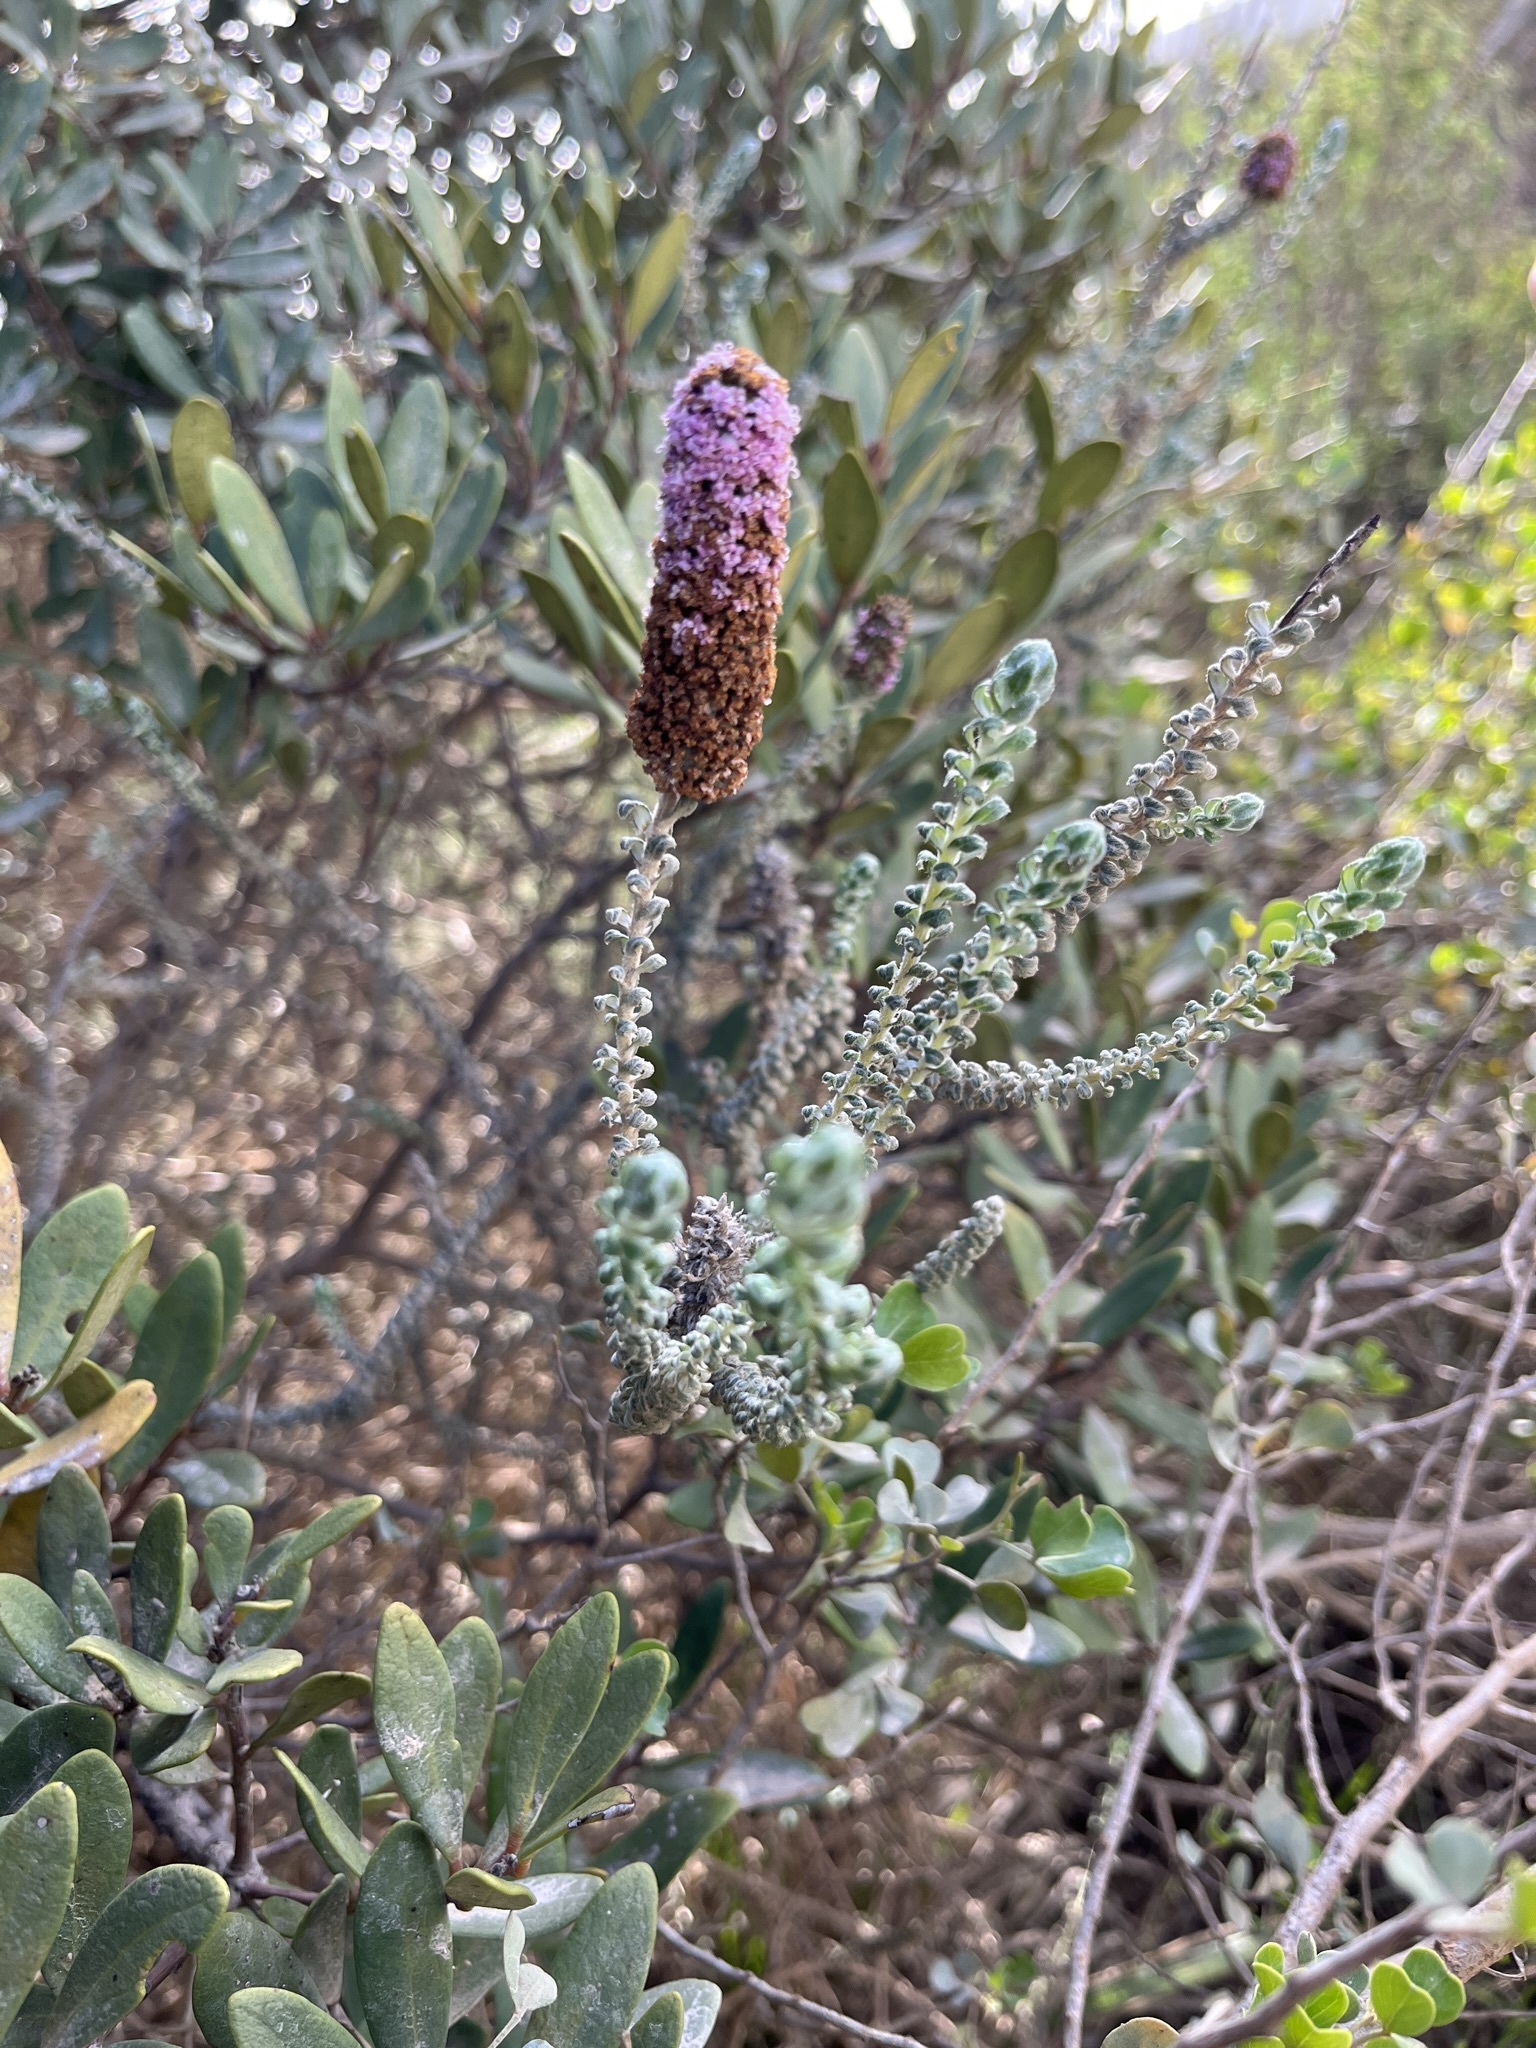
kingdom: Plantae
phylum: Tracheophyta
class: Magnoliopsida
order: Asterales
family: Asteraceae
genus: Stoebe
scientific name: Stoebe muirii
